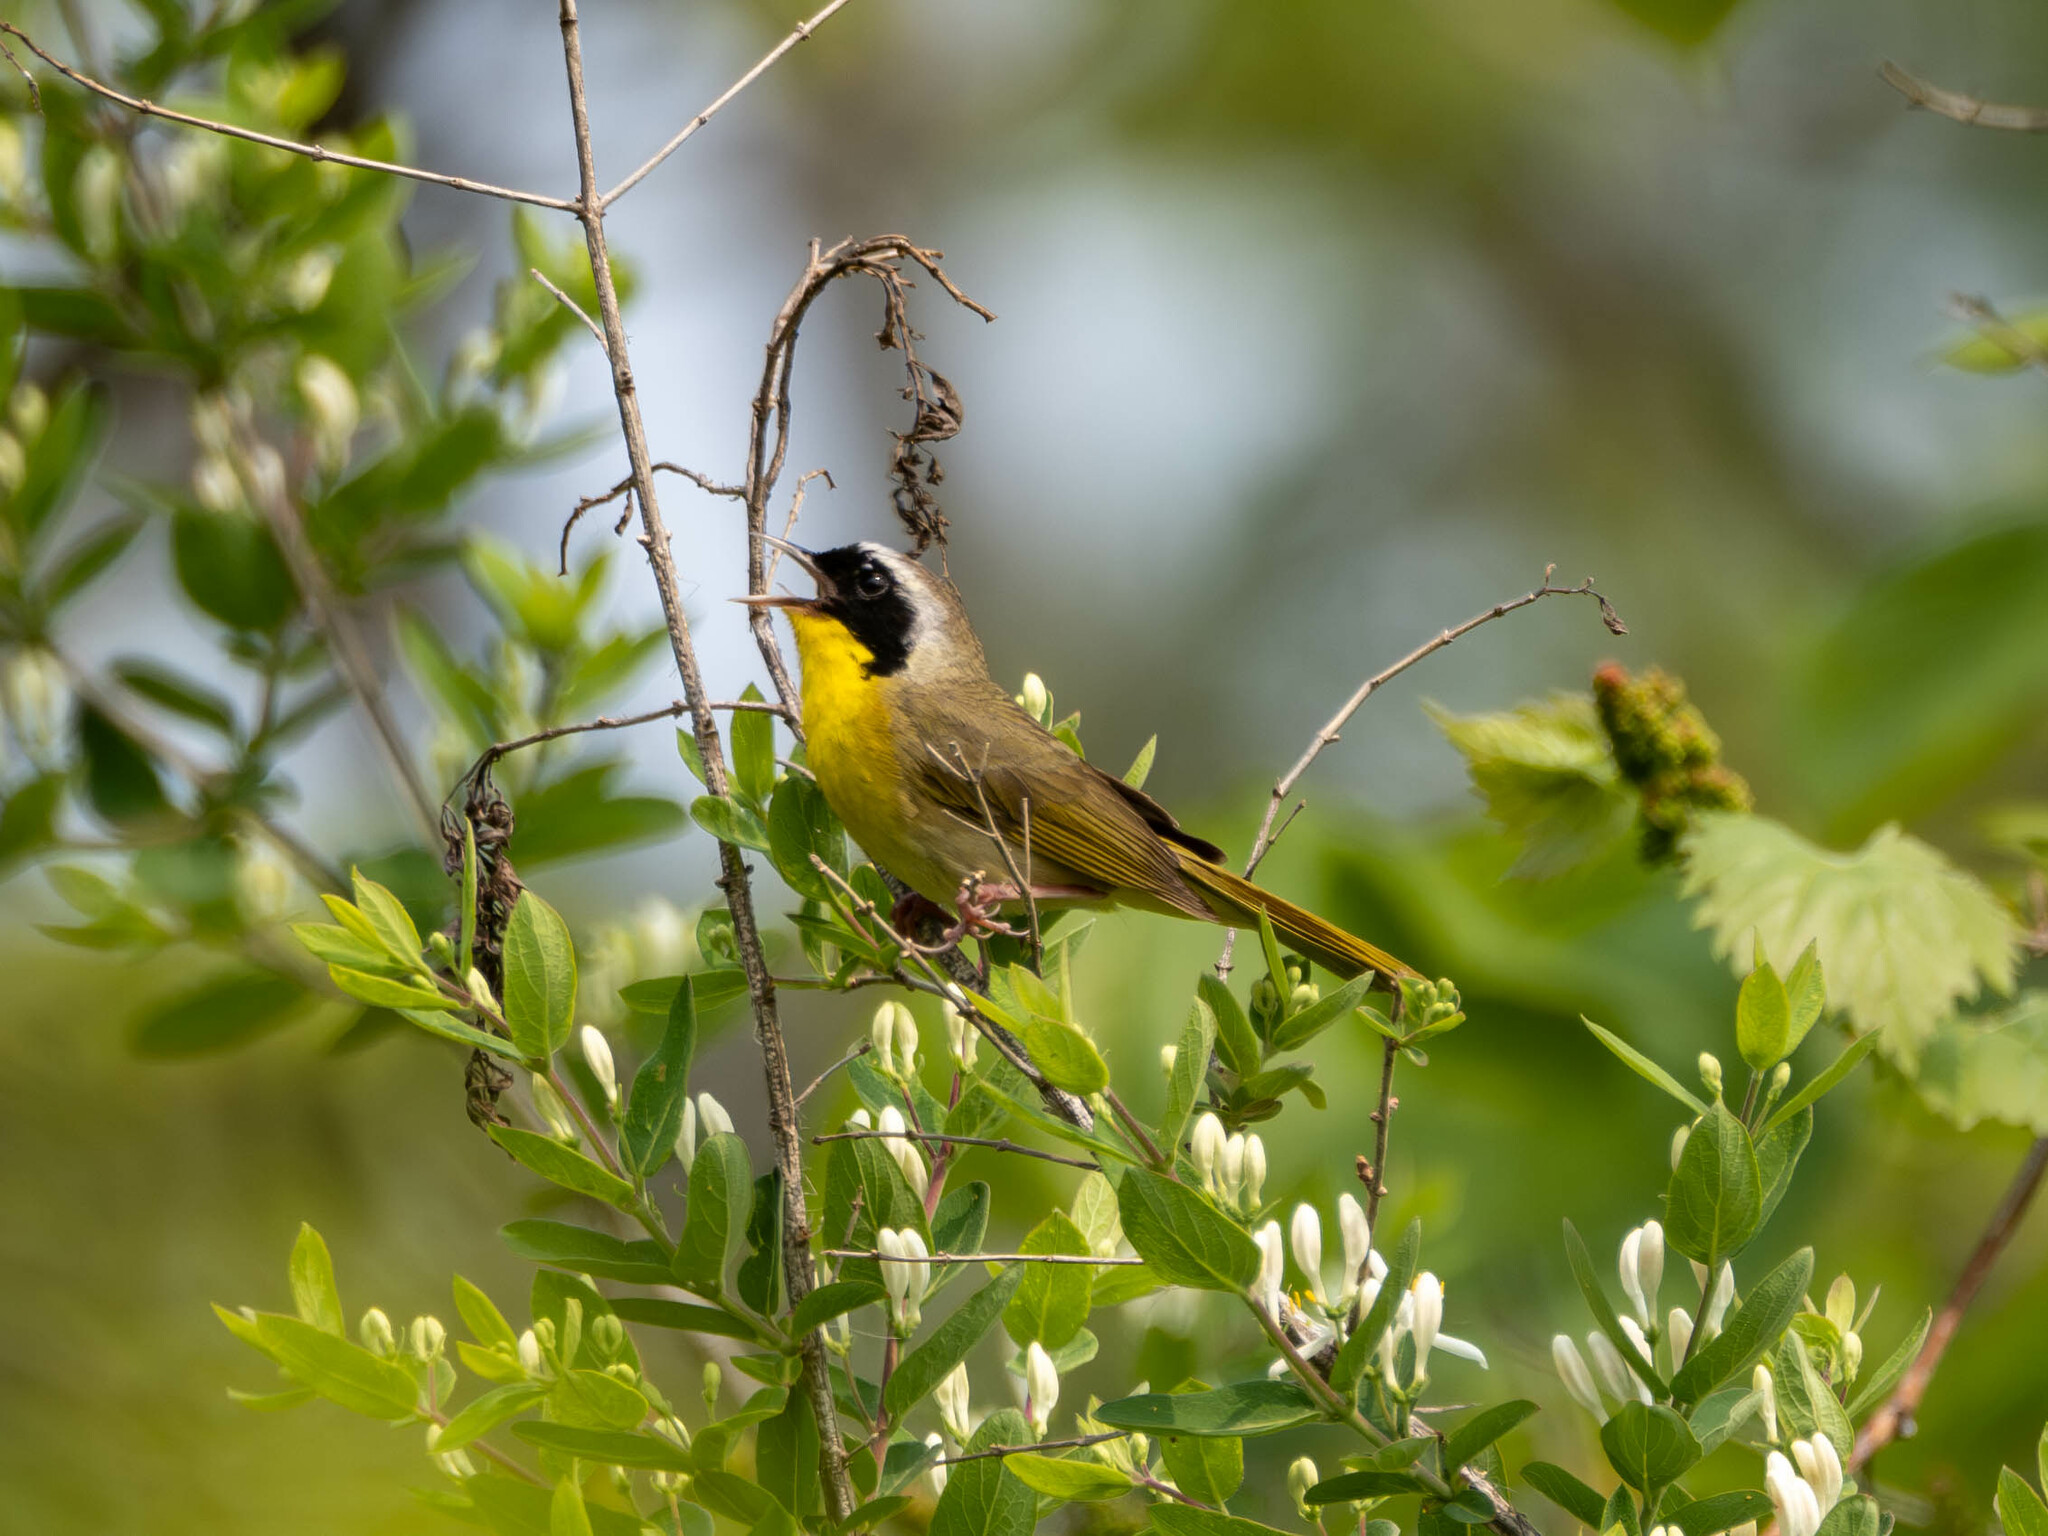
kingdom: Animalia
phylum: Chordata
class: Aves
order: Passeriformes
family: Parulidae
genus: Geothlypis
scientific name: Geothlypis trichas
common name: Common yellowthroat
